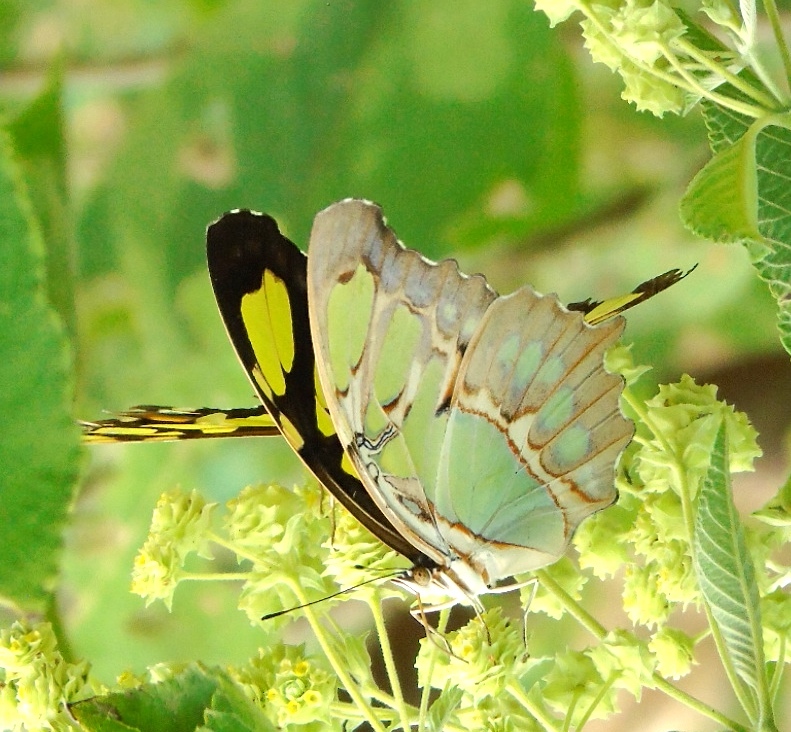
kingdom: Animalia
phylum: Arthropoda
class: Insecta
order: Lepidoptera
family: Nymphalidae
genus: Siproeta
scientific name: Siproeta stelenes
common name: Malachite
